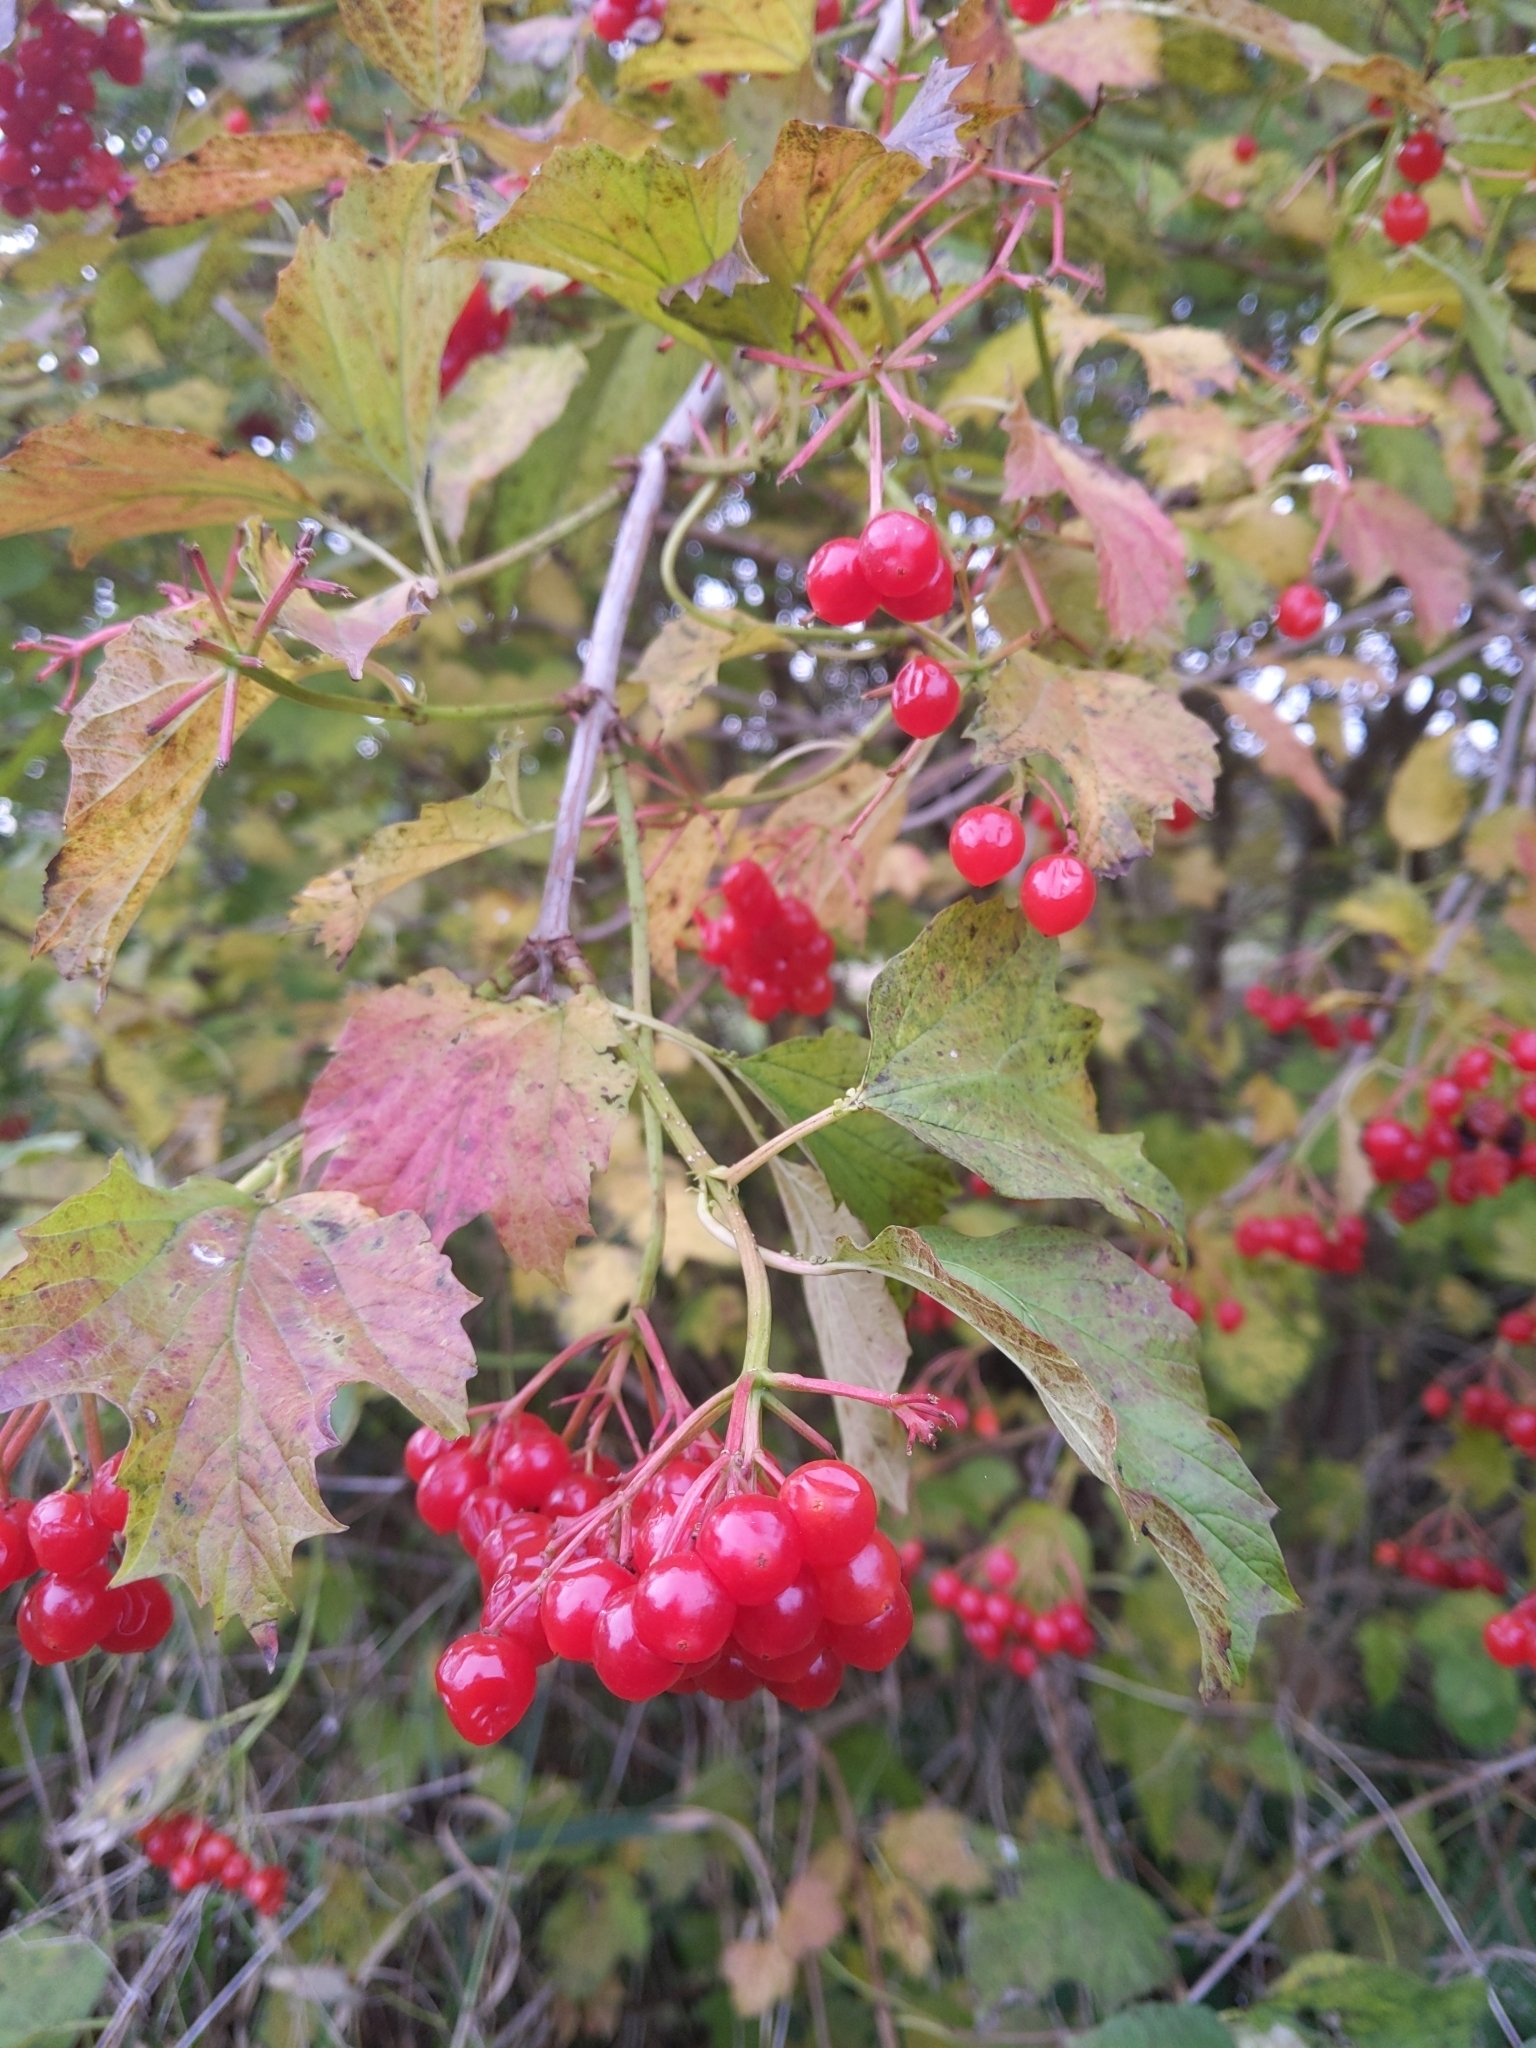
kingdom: Plantae
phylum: Tracheophyta
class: Magnoliopsida
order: Dipsacales
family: Viburnaceae
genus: Viburnum
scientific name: Viburnum opulus
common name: Guelder-rose
